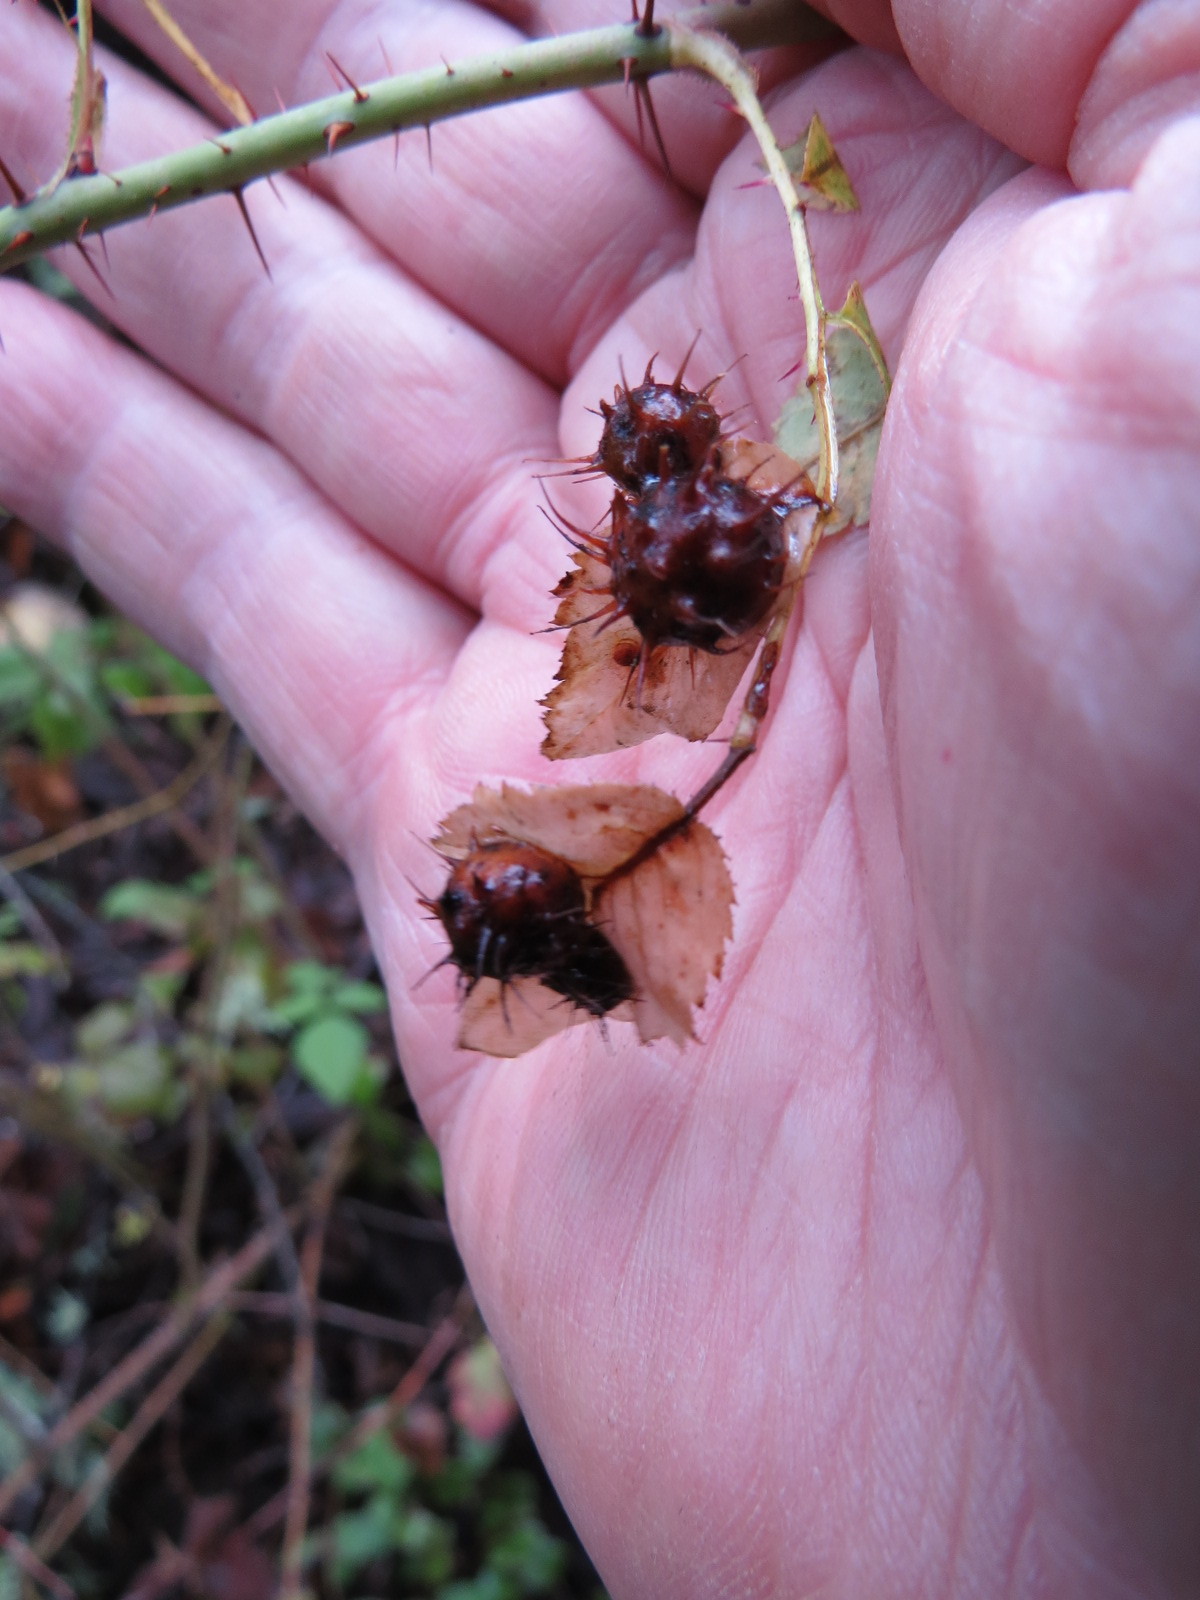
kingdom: Animalia
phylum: Arthropoda
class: Insecta
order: Hymenoptera
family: Cynipidae
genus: Diplolepis
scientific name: Diplolepis polita
